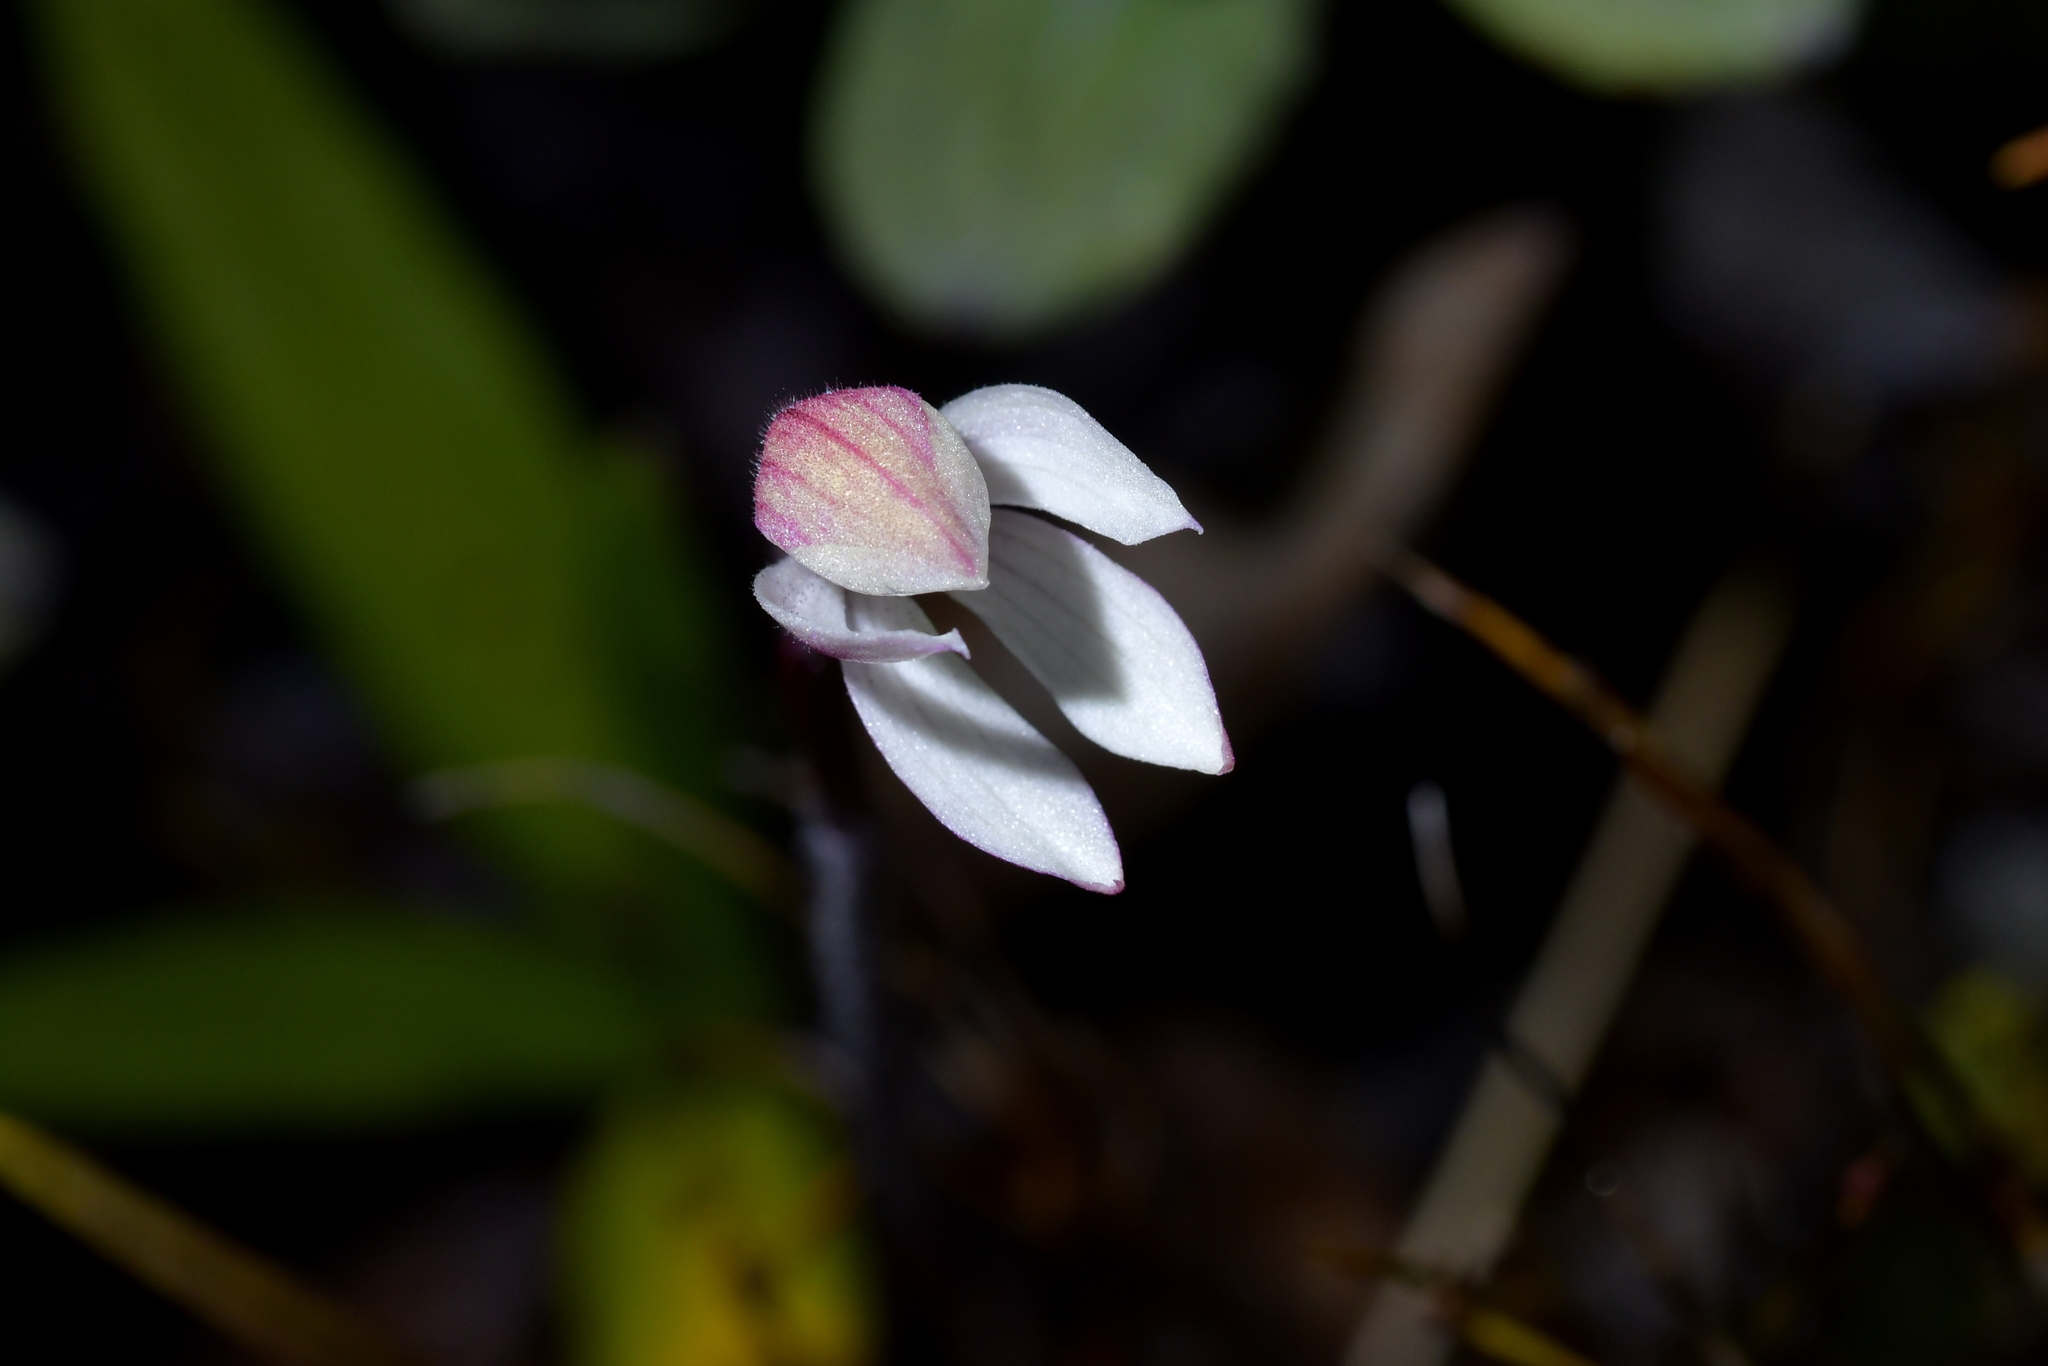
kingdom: Plantae
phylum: Tracheophyta
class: Liliopsida
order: Asparagales
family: Orchidaceae
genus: Caladenia
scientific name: Caladenia lyallii
